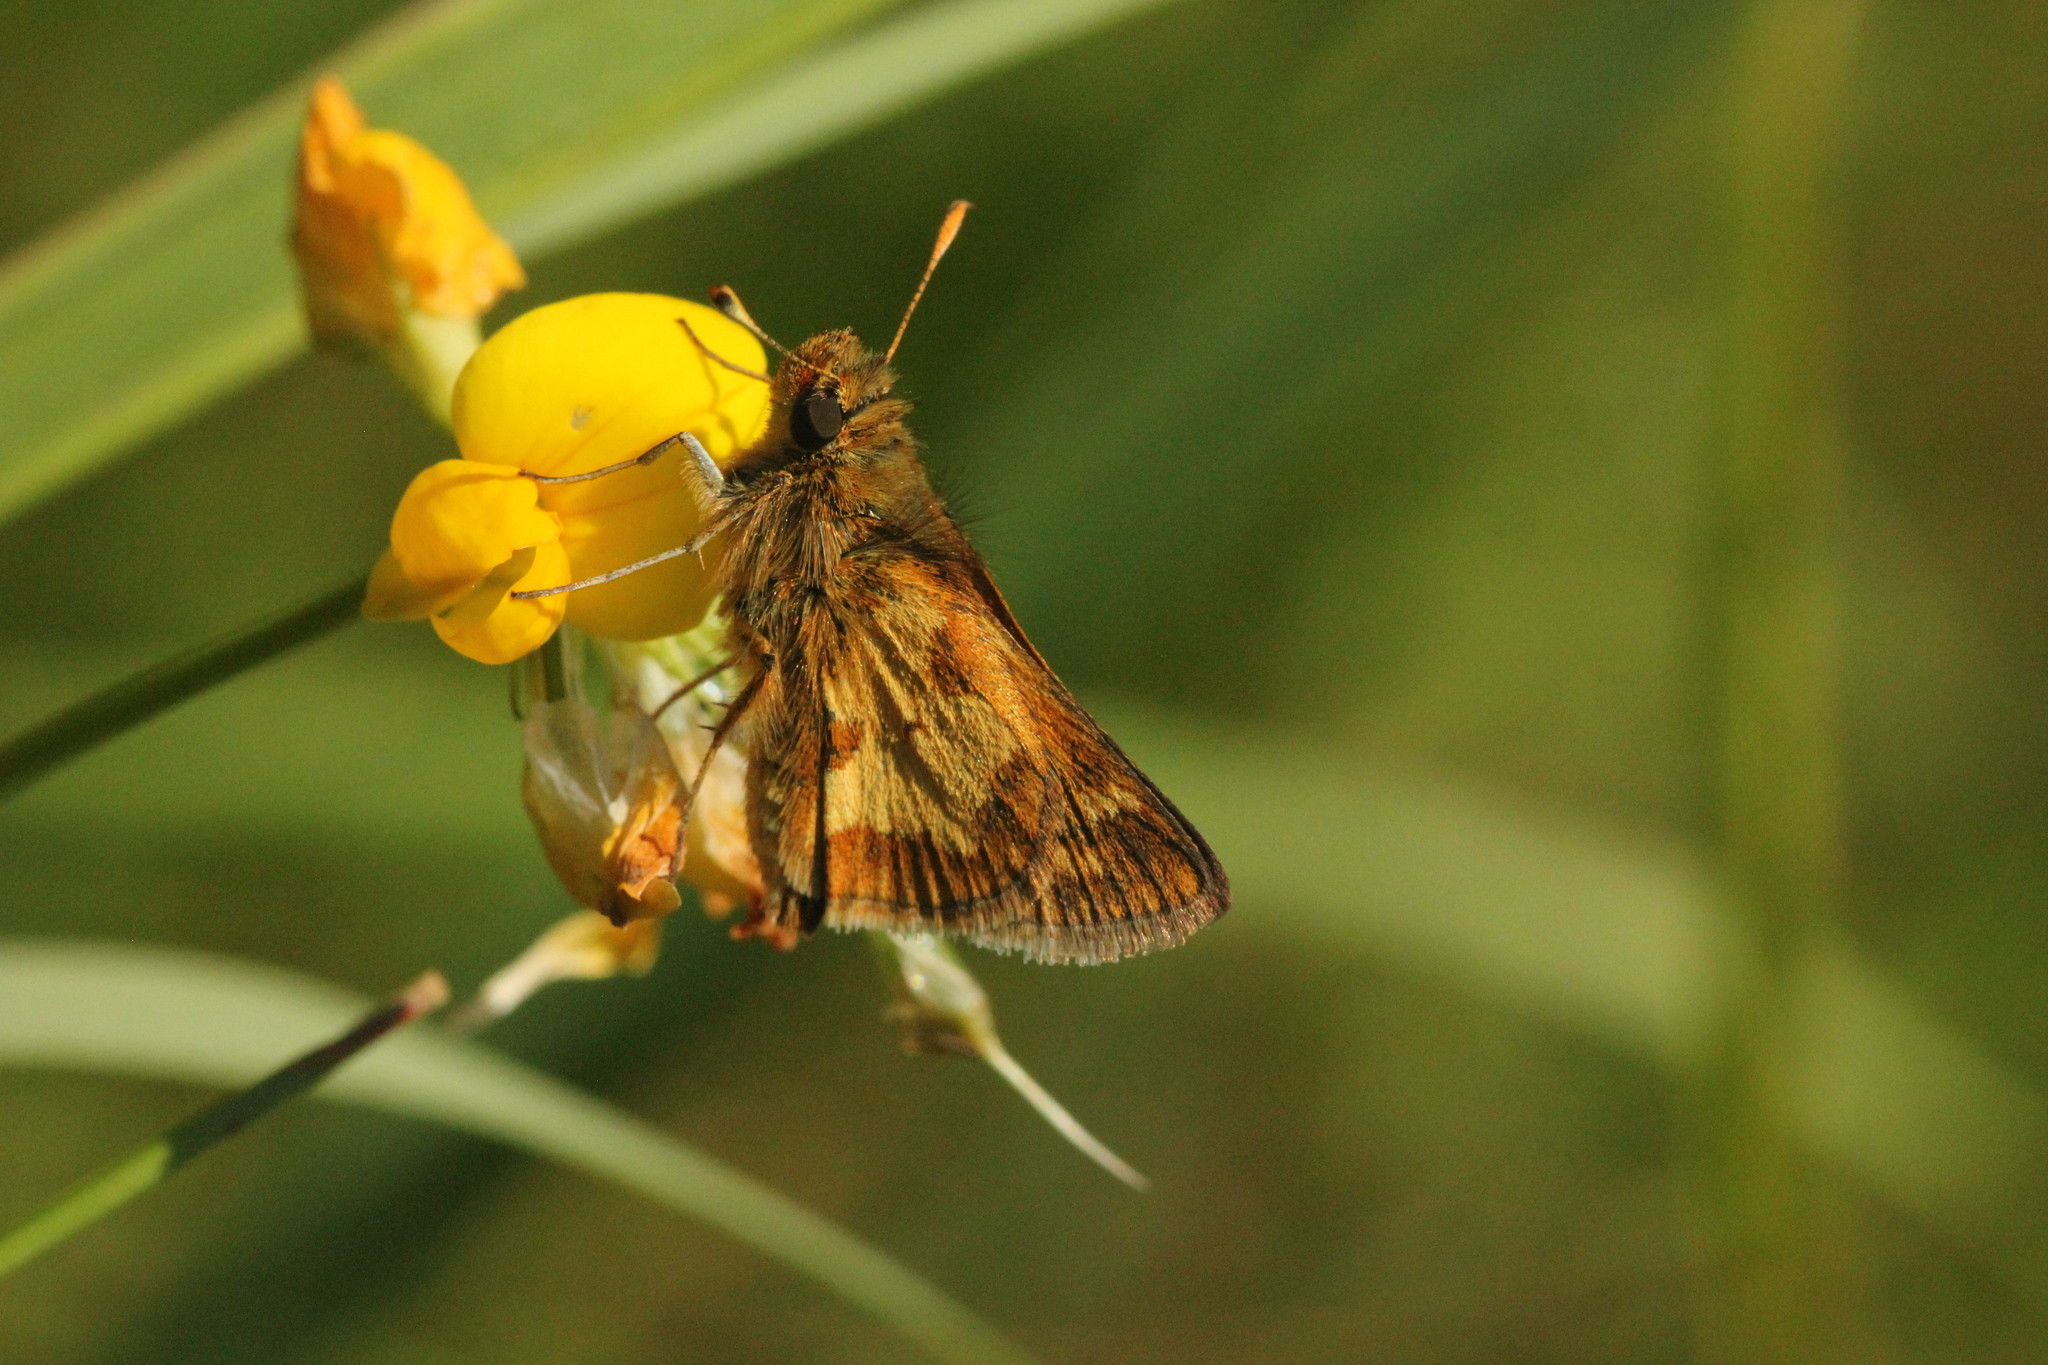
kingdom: Animalia
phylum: Arthropoda
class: Insecta
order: Lepidoptera
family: Hesperiidae
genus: Polites
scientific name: Polites coras
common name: Peck's skipper
